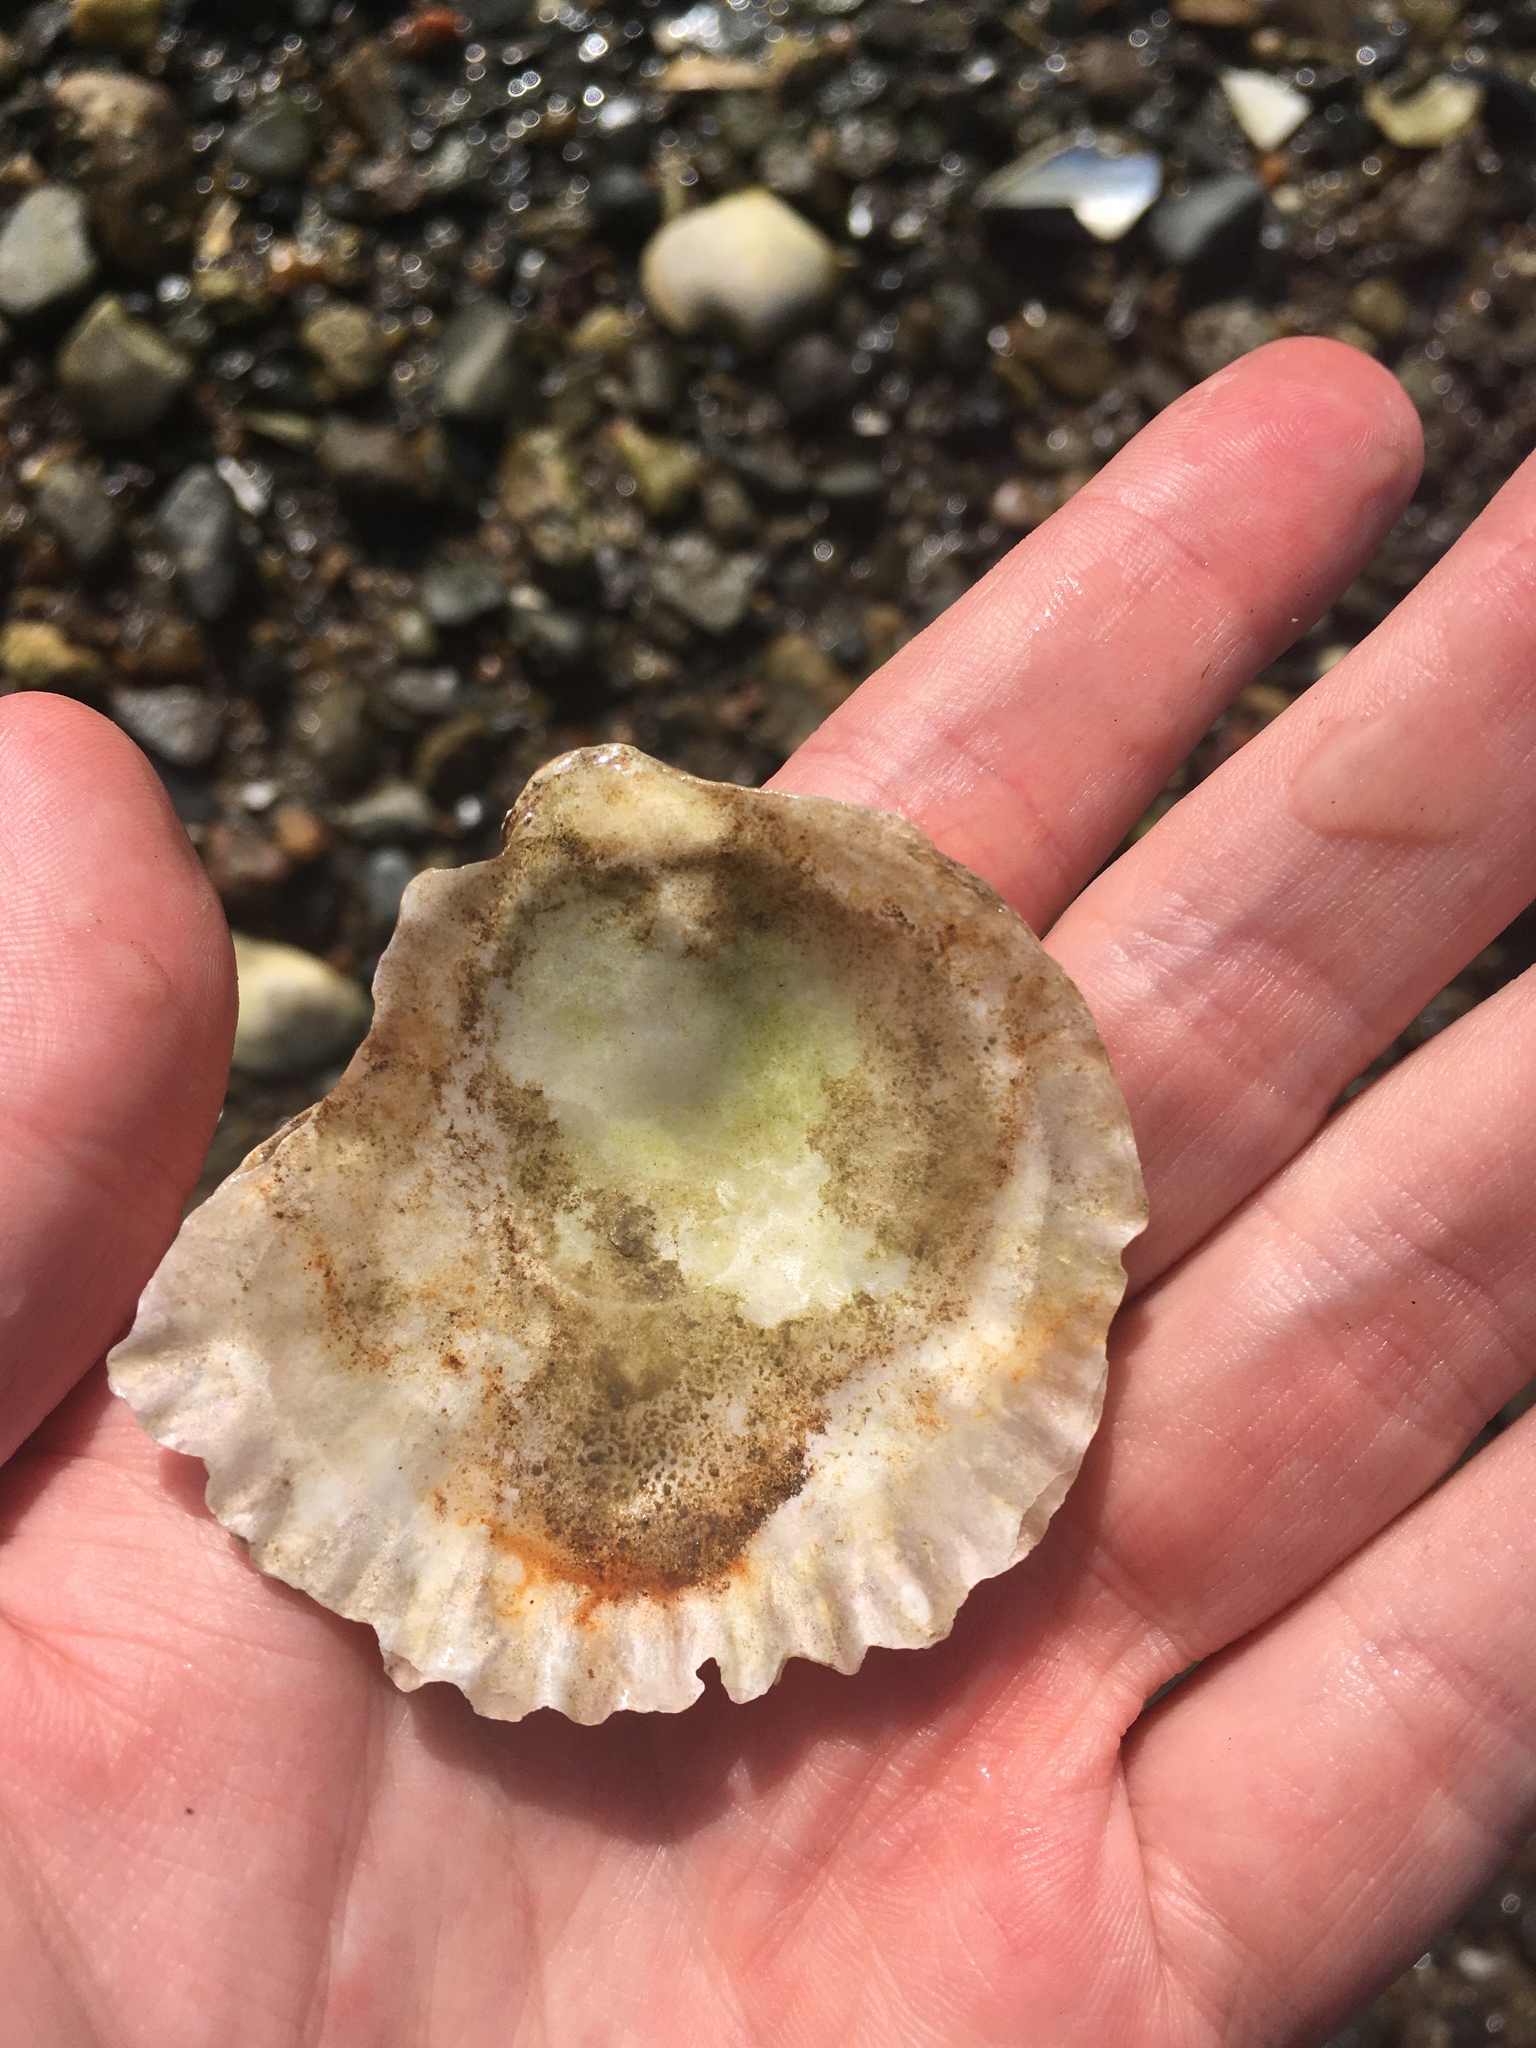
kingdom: Animalia
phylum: Mollusca
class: Bivalvia
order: Ostreida
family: Ostreidae
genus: Ostrea
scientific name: Ostrea edulis
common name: Flat oyster
